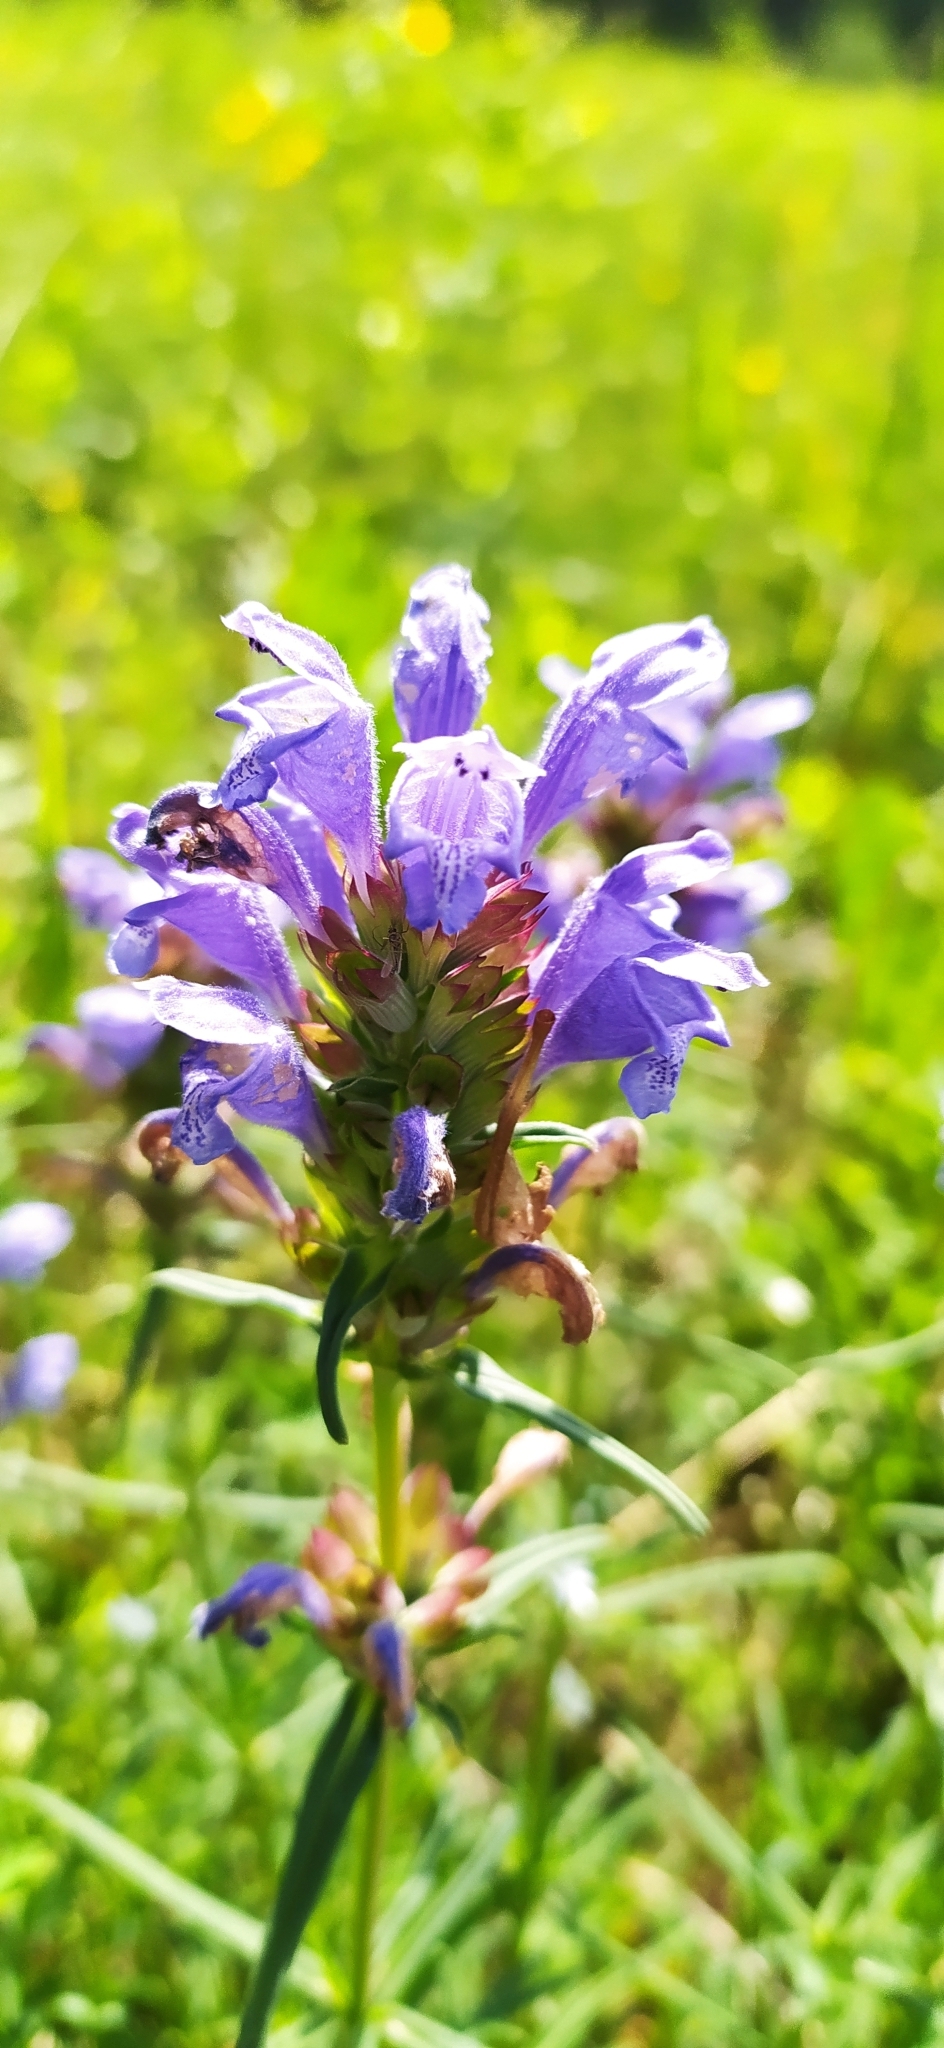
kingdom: Plantae
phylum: Tracheophyta
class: Magnoliopsida
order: Lamiales
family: Lamiaceae
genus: Dracocephalum
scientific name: Dracocephalum ruyschiana
